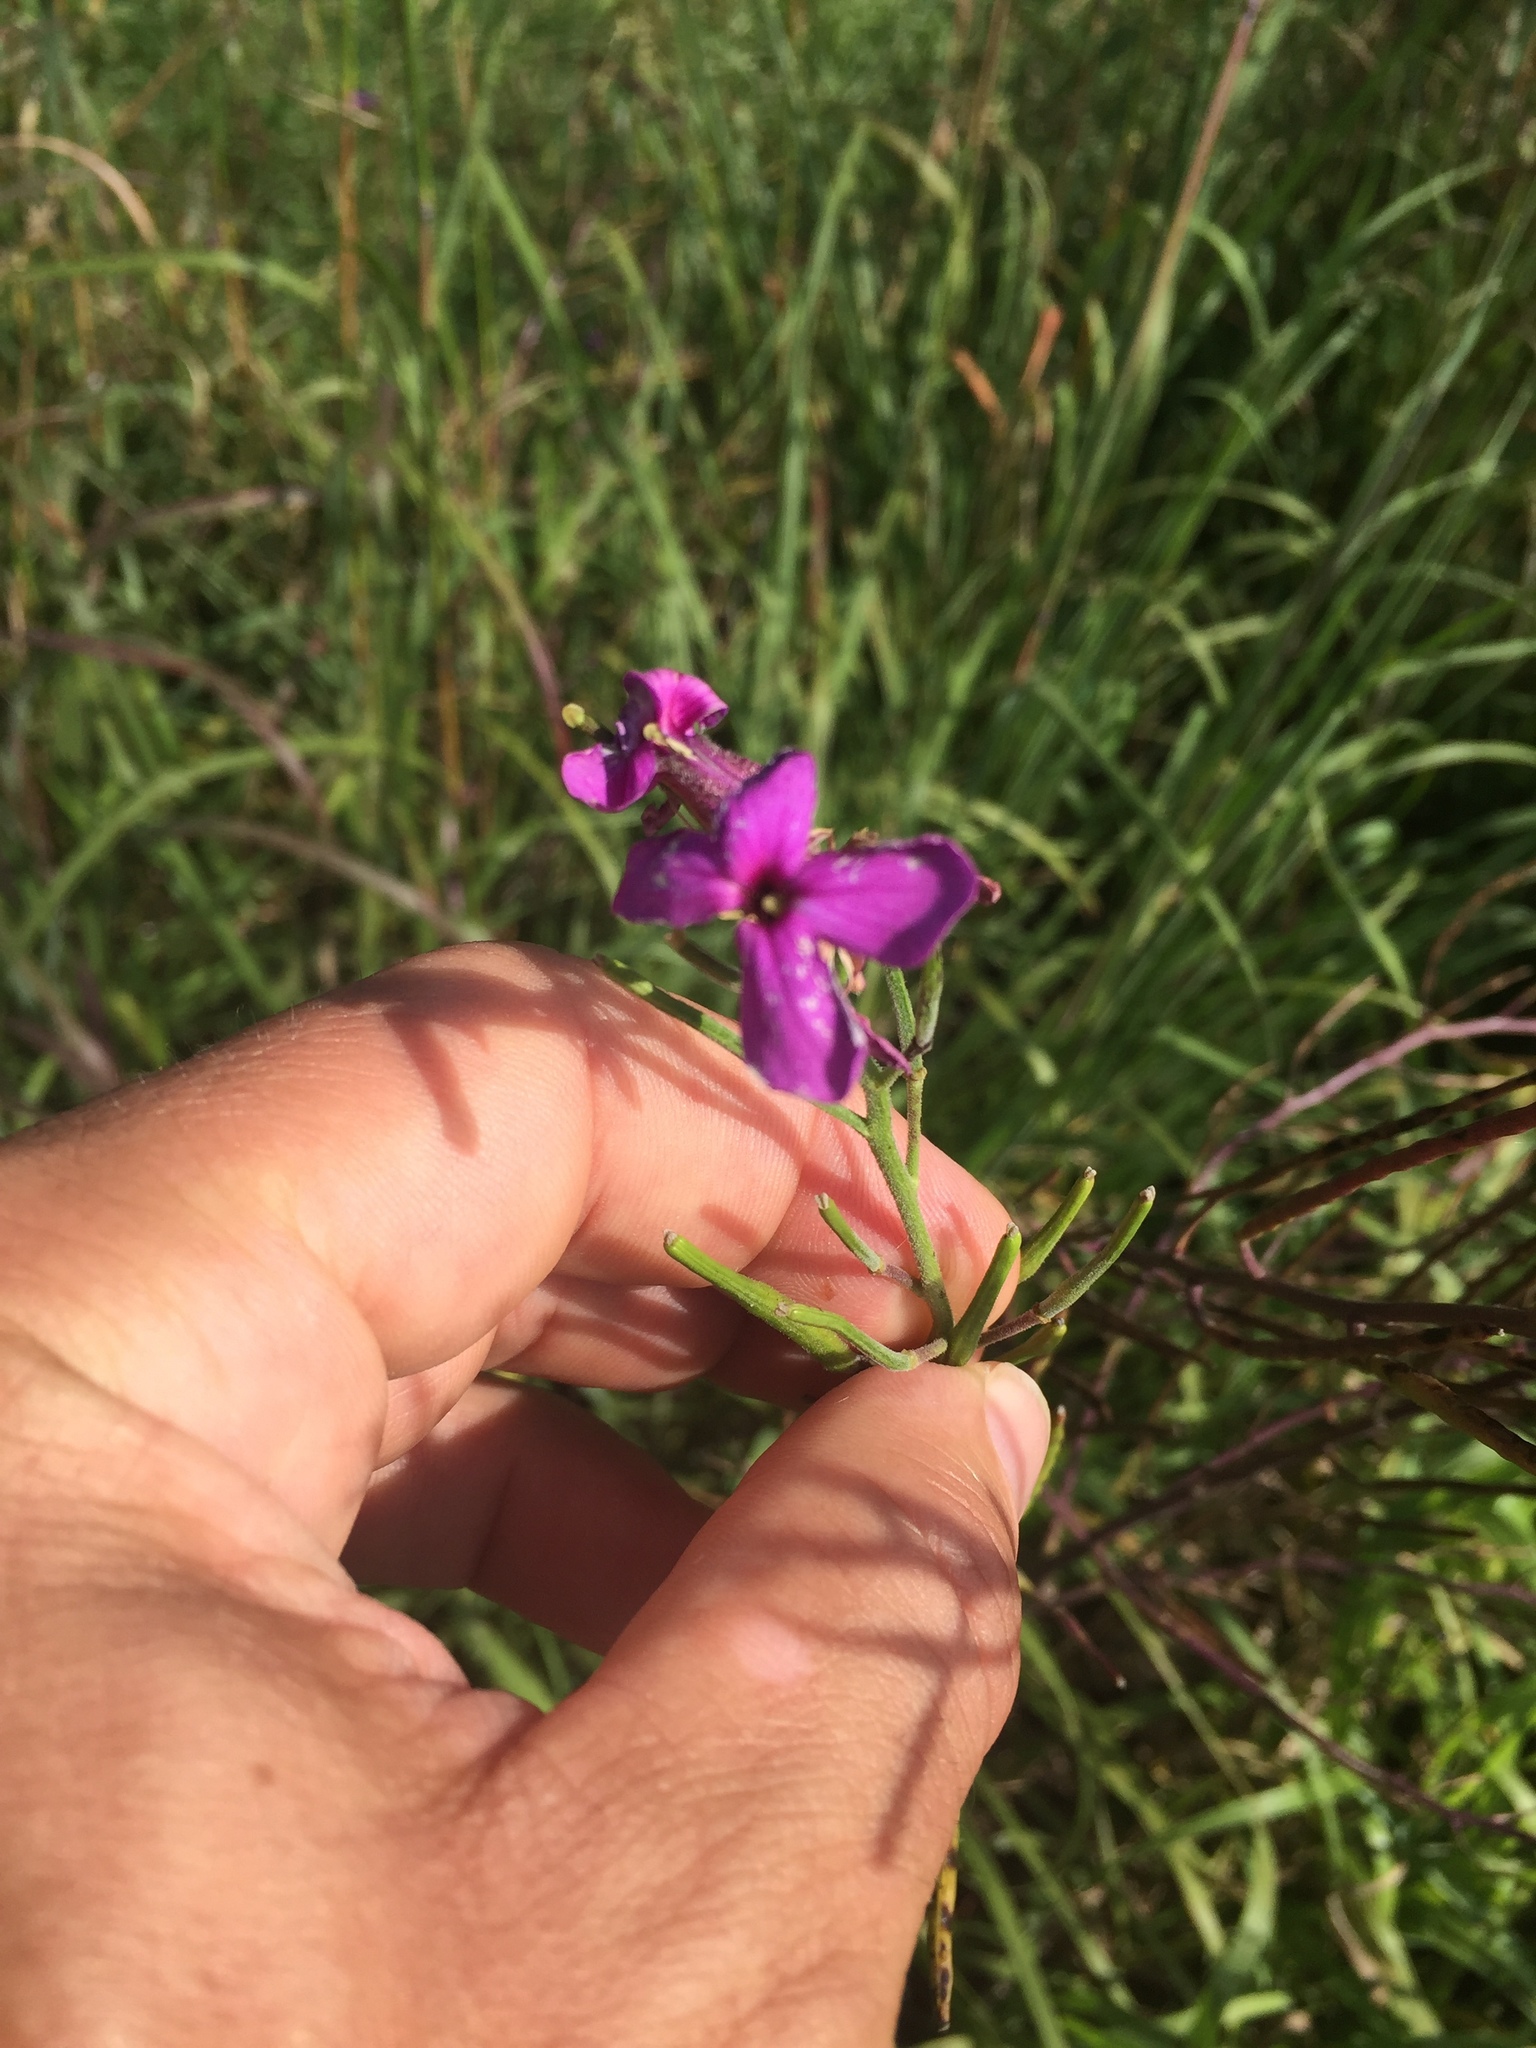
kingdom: Plantae
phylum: Tracheophyta
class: Magnoliopsida
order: Brassicales
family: Brassicaceae
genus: Hesperis
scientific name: Hesperis matronalis
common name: Dame's-violet
